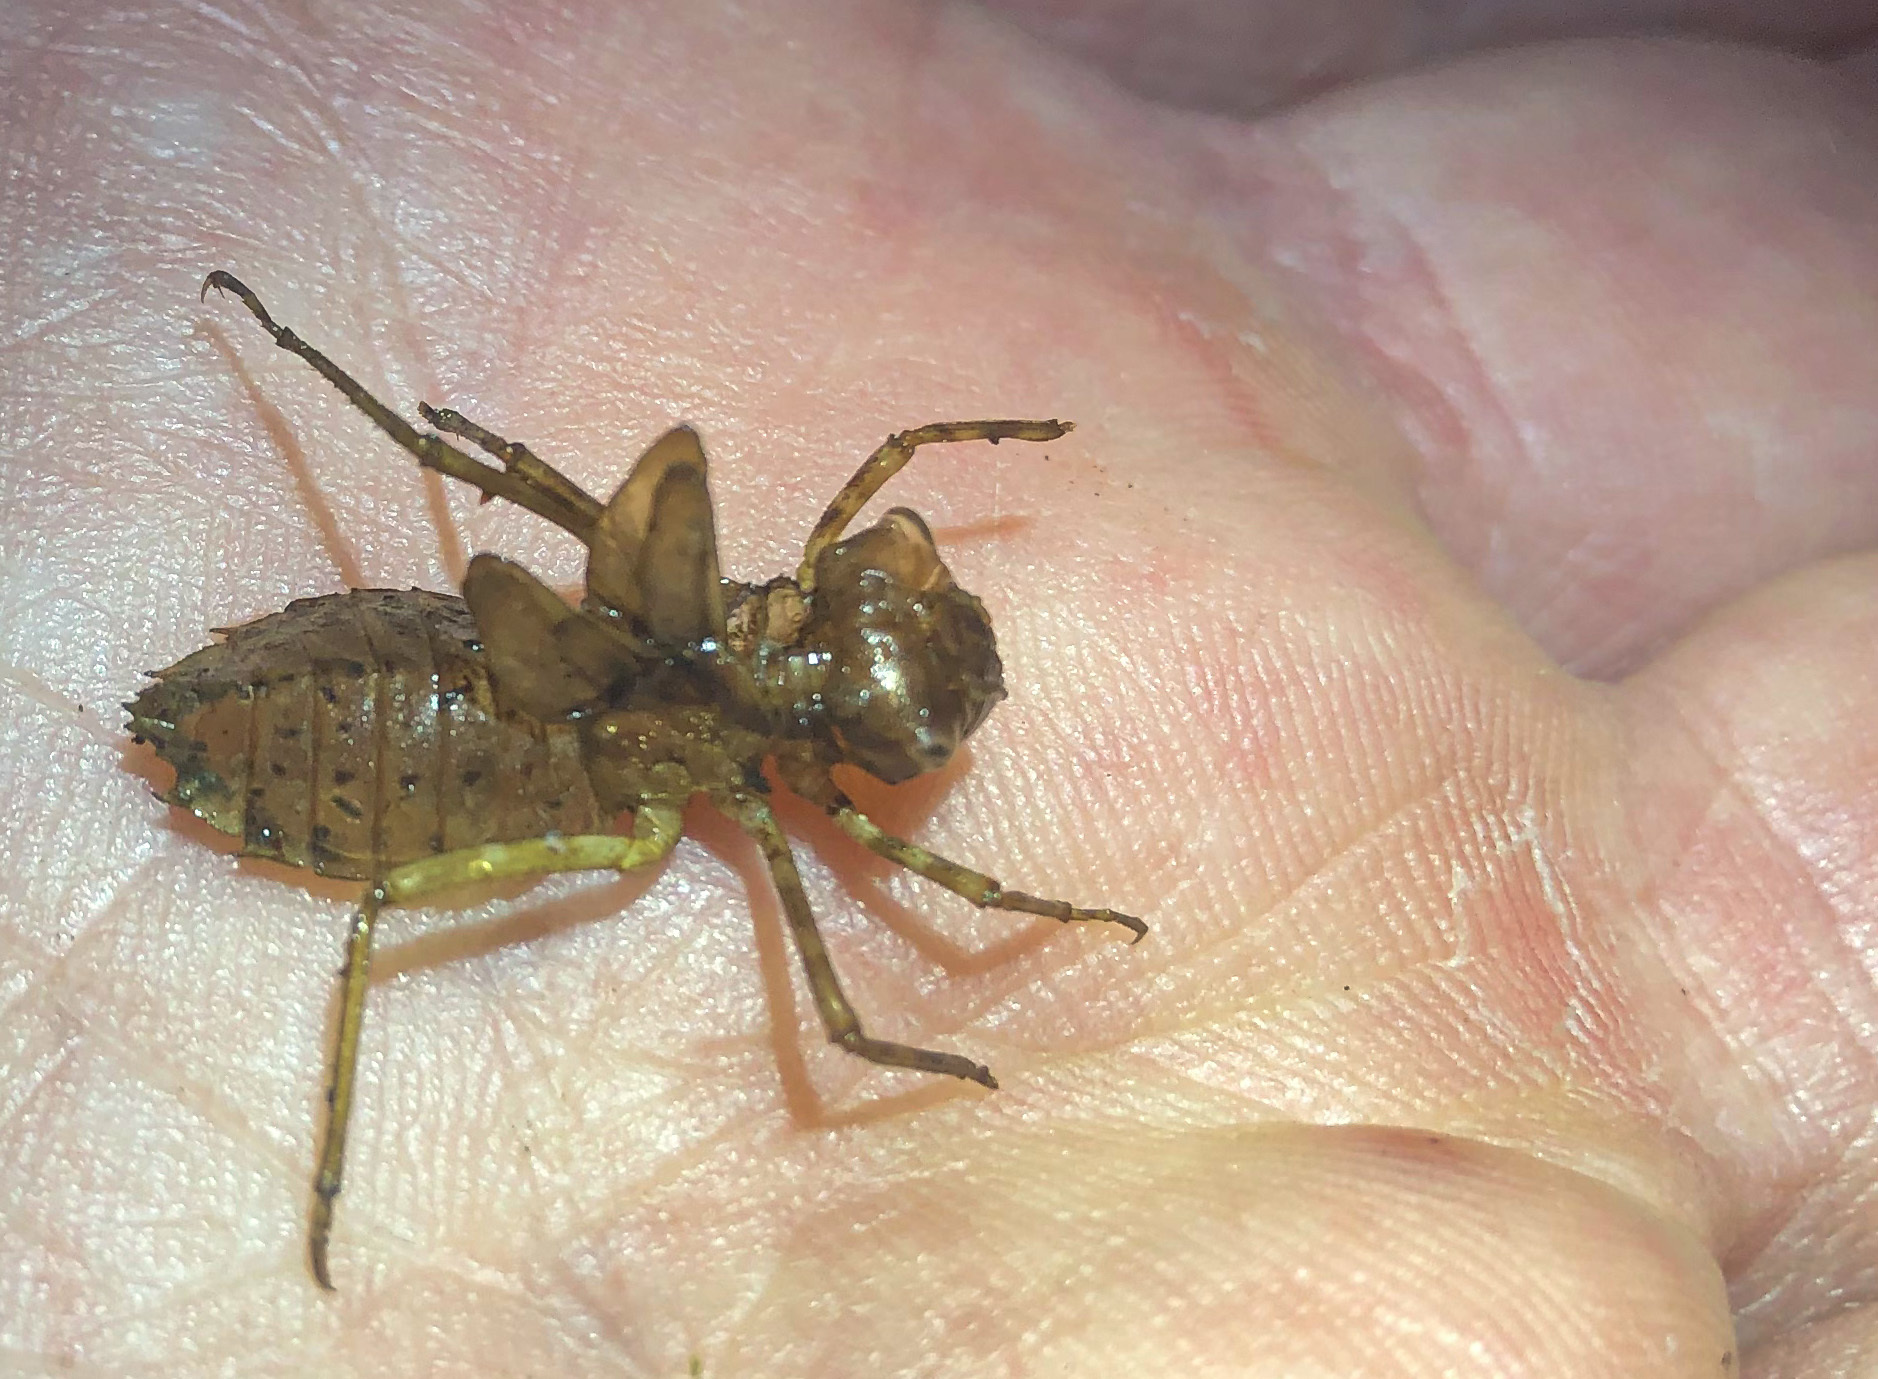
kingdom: Animalia
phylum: Arthropoda
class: Insecta
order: Odonata
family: Corduliidae
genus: Antipodochlora
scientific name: Antipodochlora braueri
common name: Dusk dragonfly
